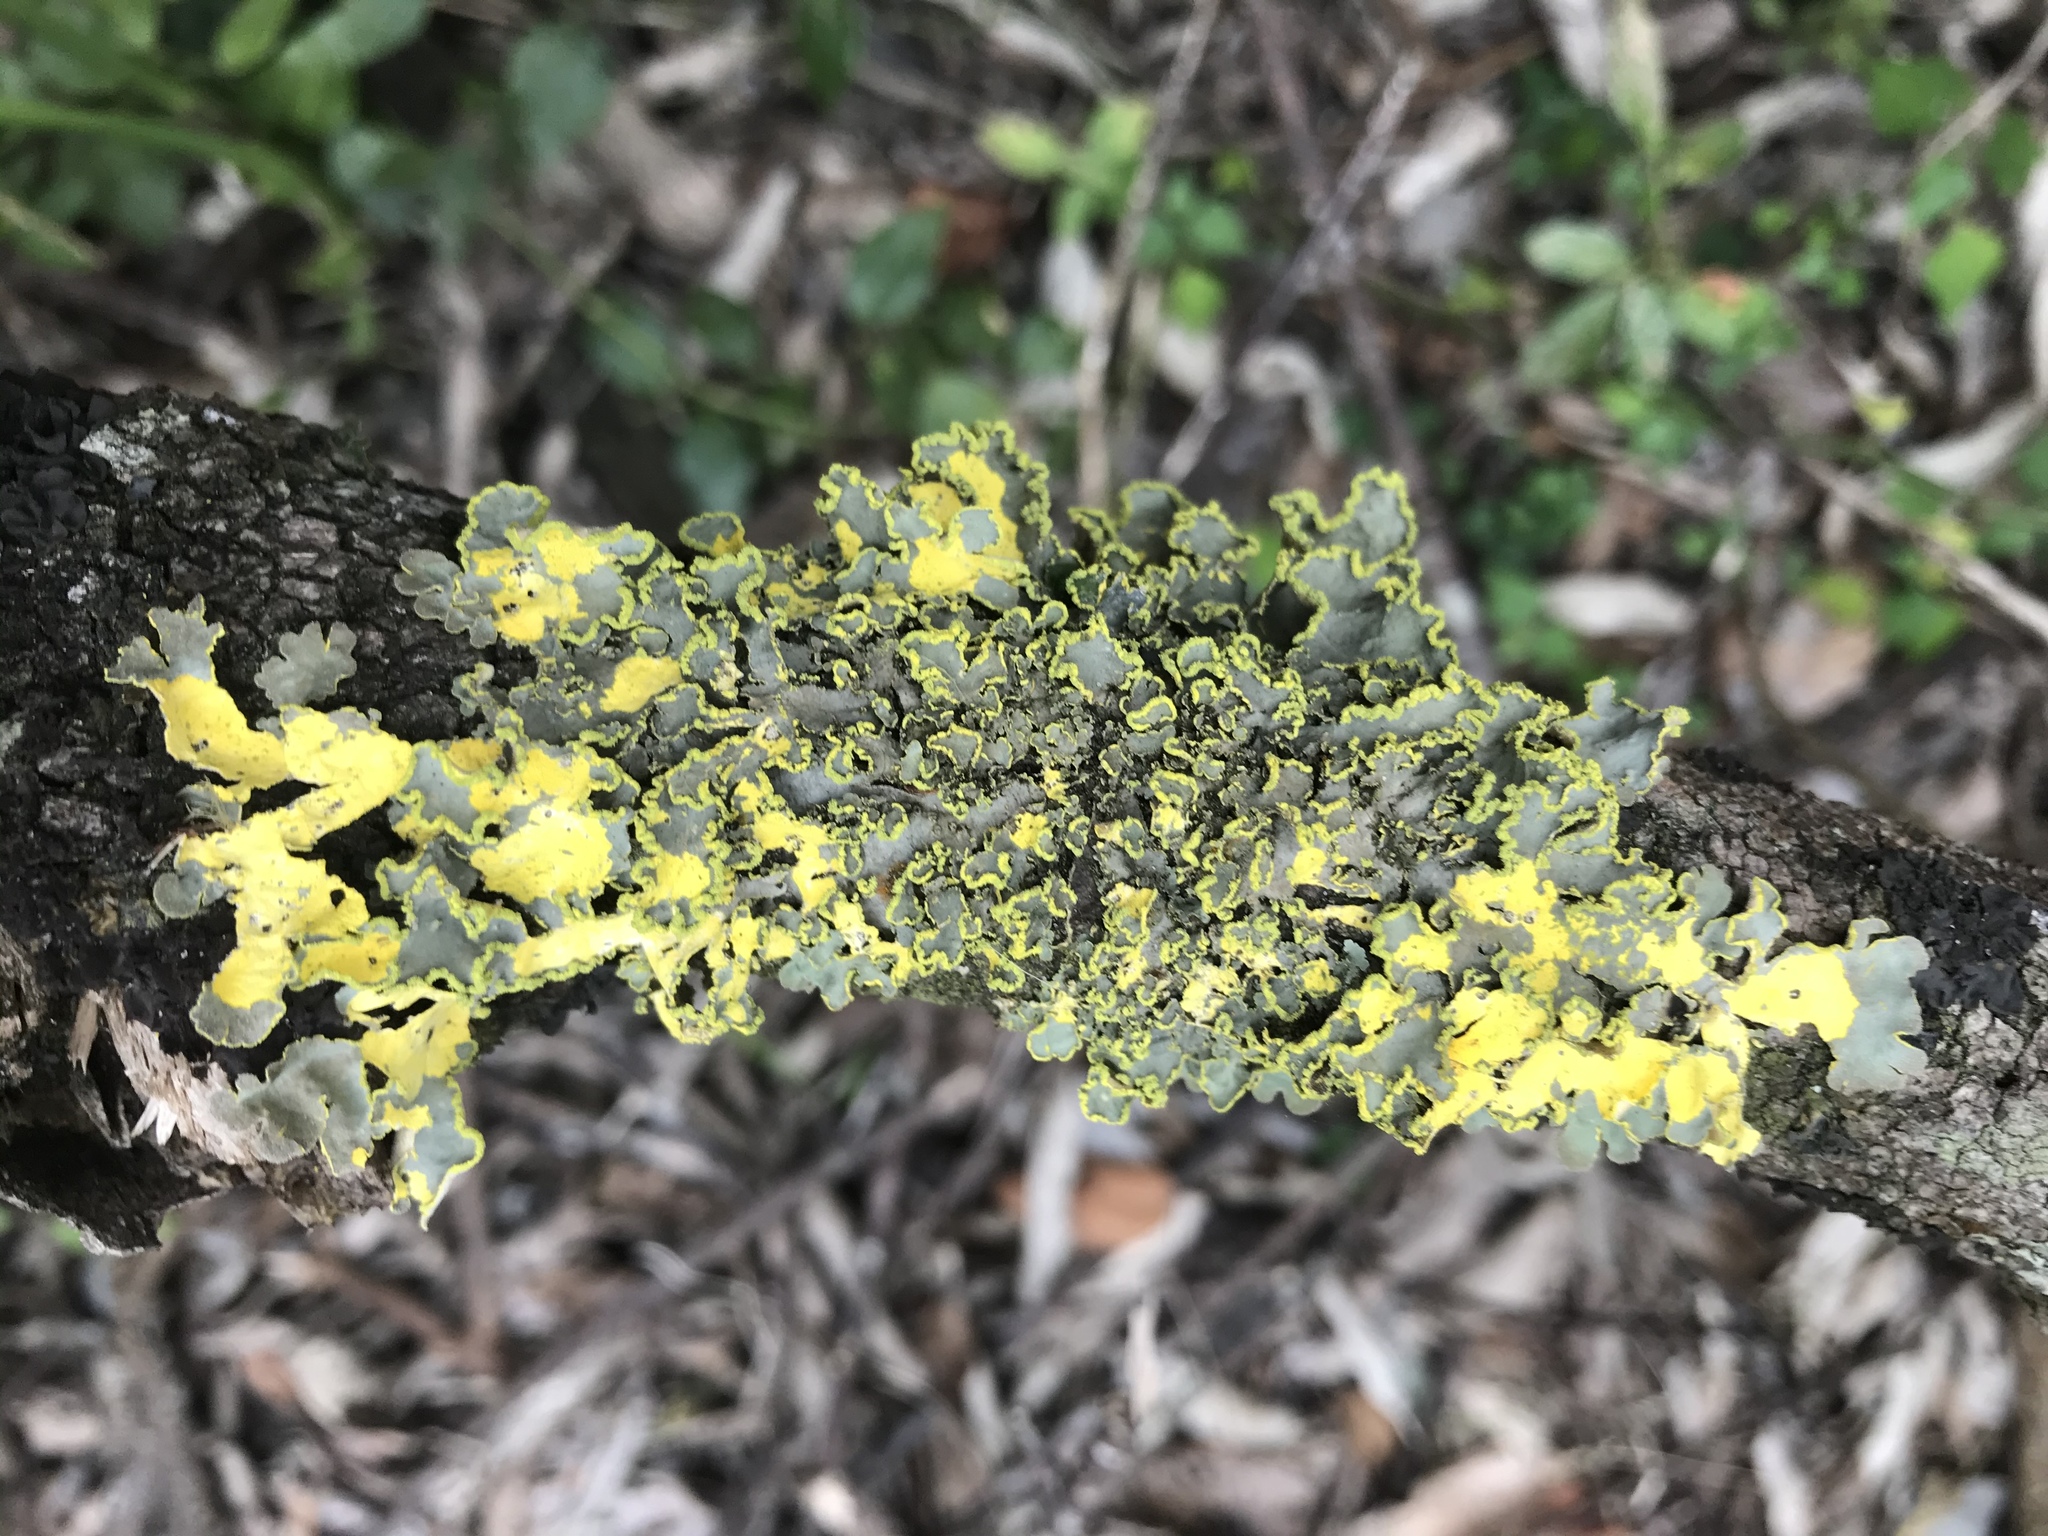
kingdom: Fungi
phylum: Ascomycota
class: Lecanoromycetes
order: Peltigerales
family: Lobariaceae
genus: Pseudocyphellaria
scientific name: Pseudocyphellaria aurata
